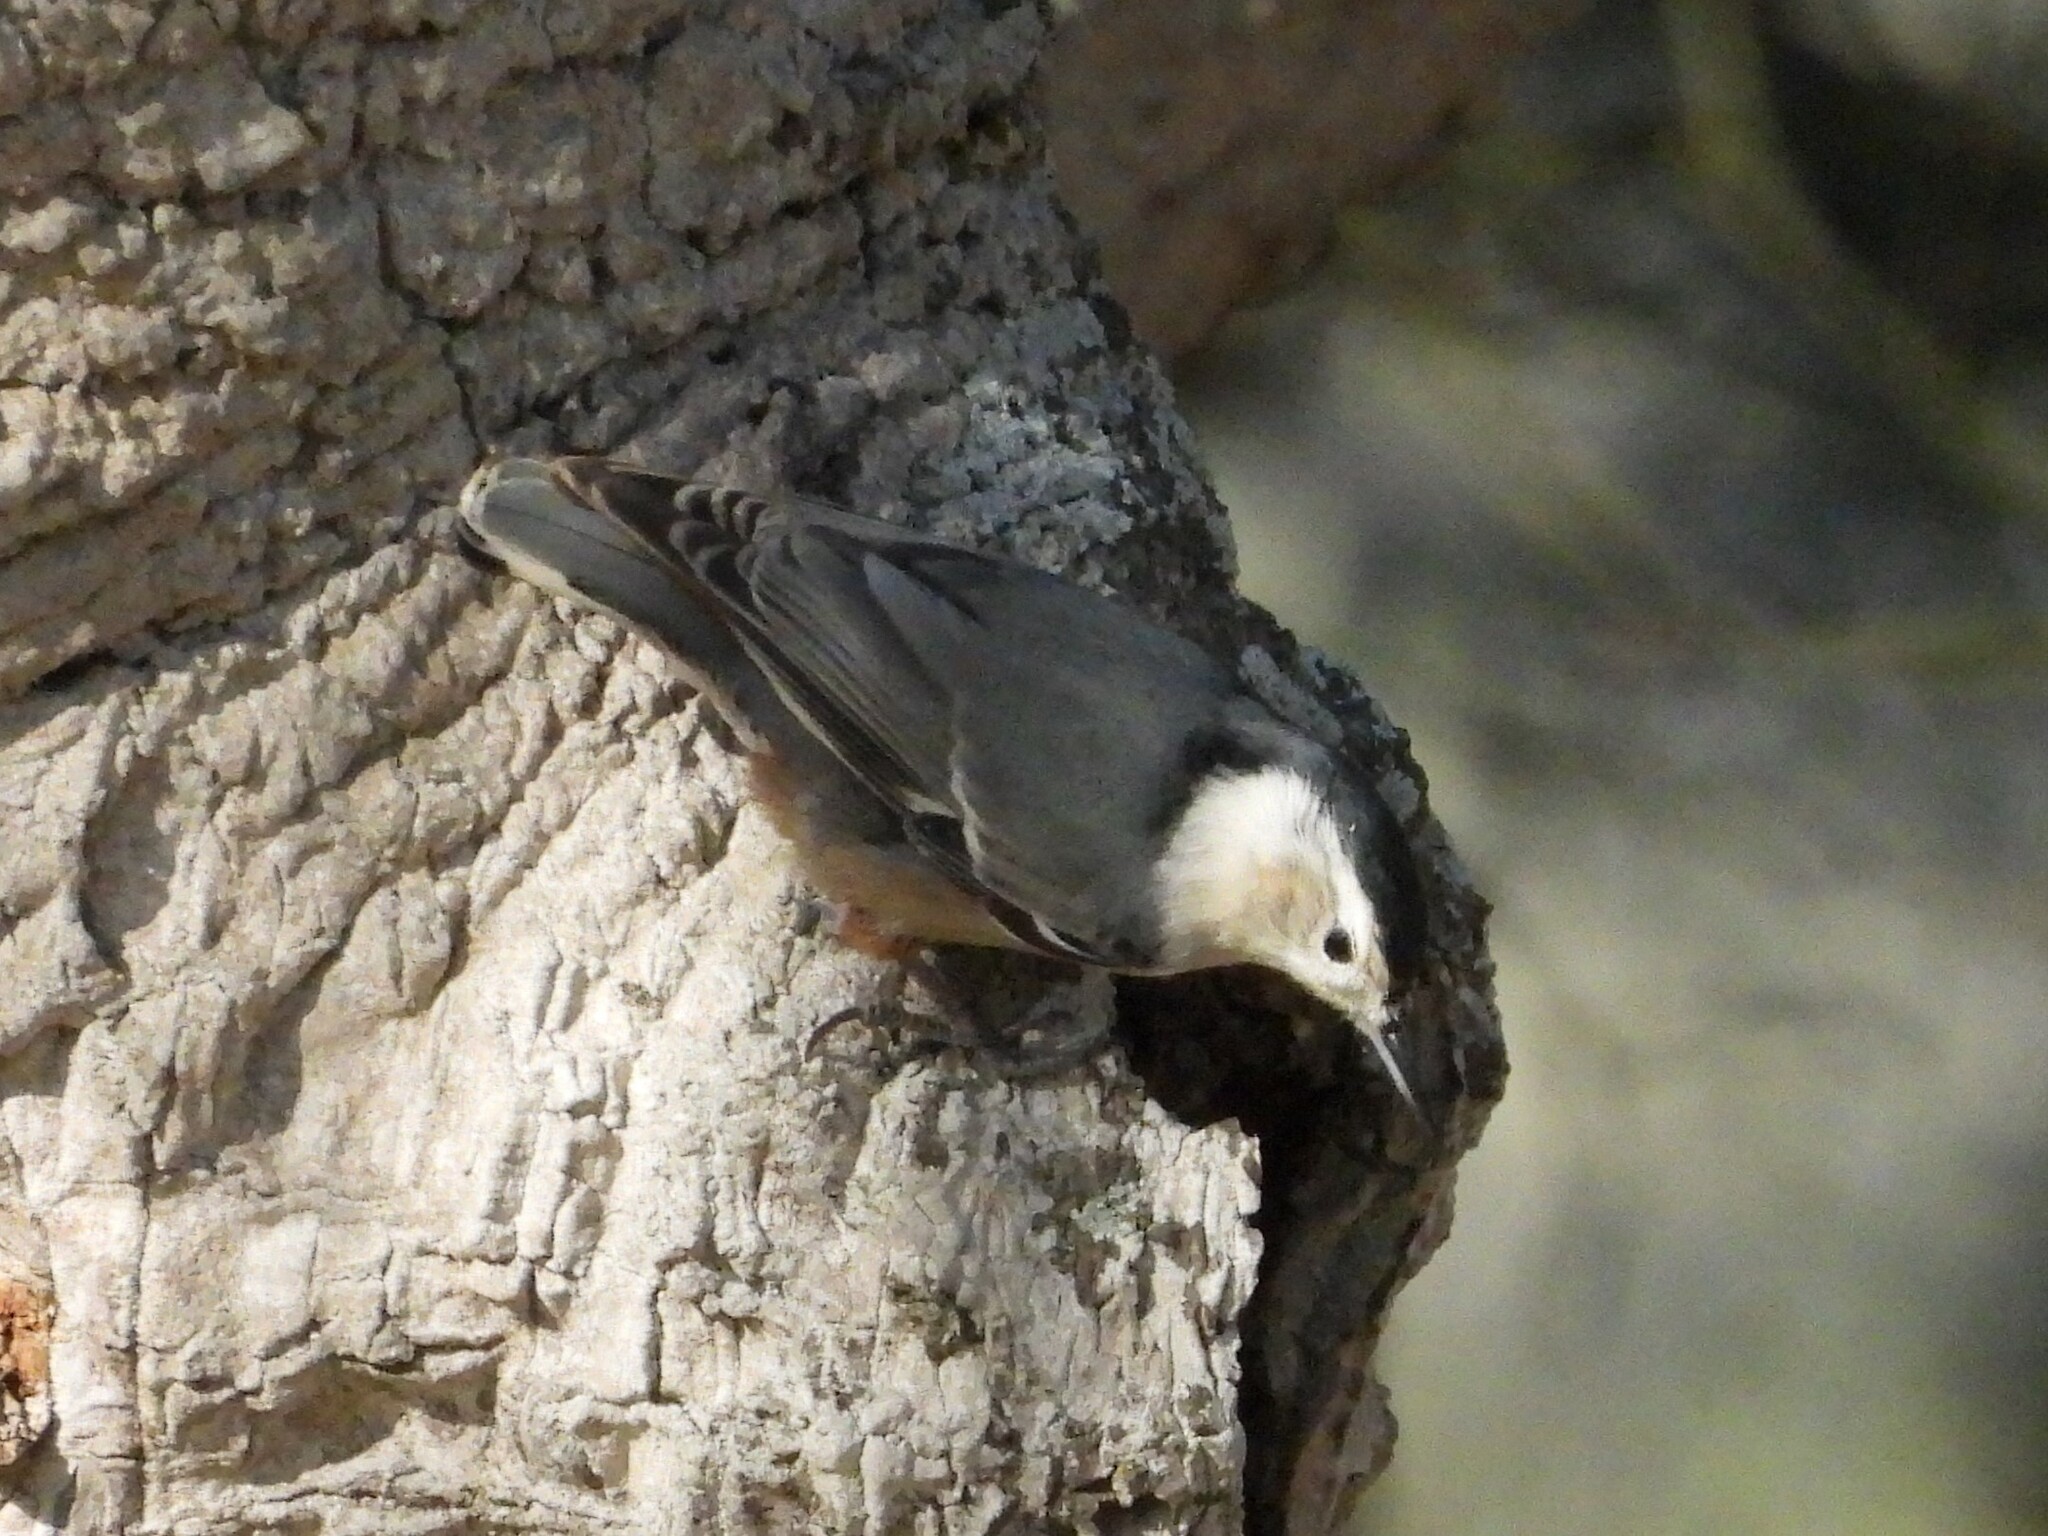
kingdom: Animalia
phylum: Chordata
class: Aves
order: Passeriformes
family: Sittidae
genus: Sitta
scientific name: Sitta carolinensis
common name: White-breasted nuthatch
